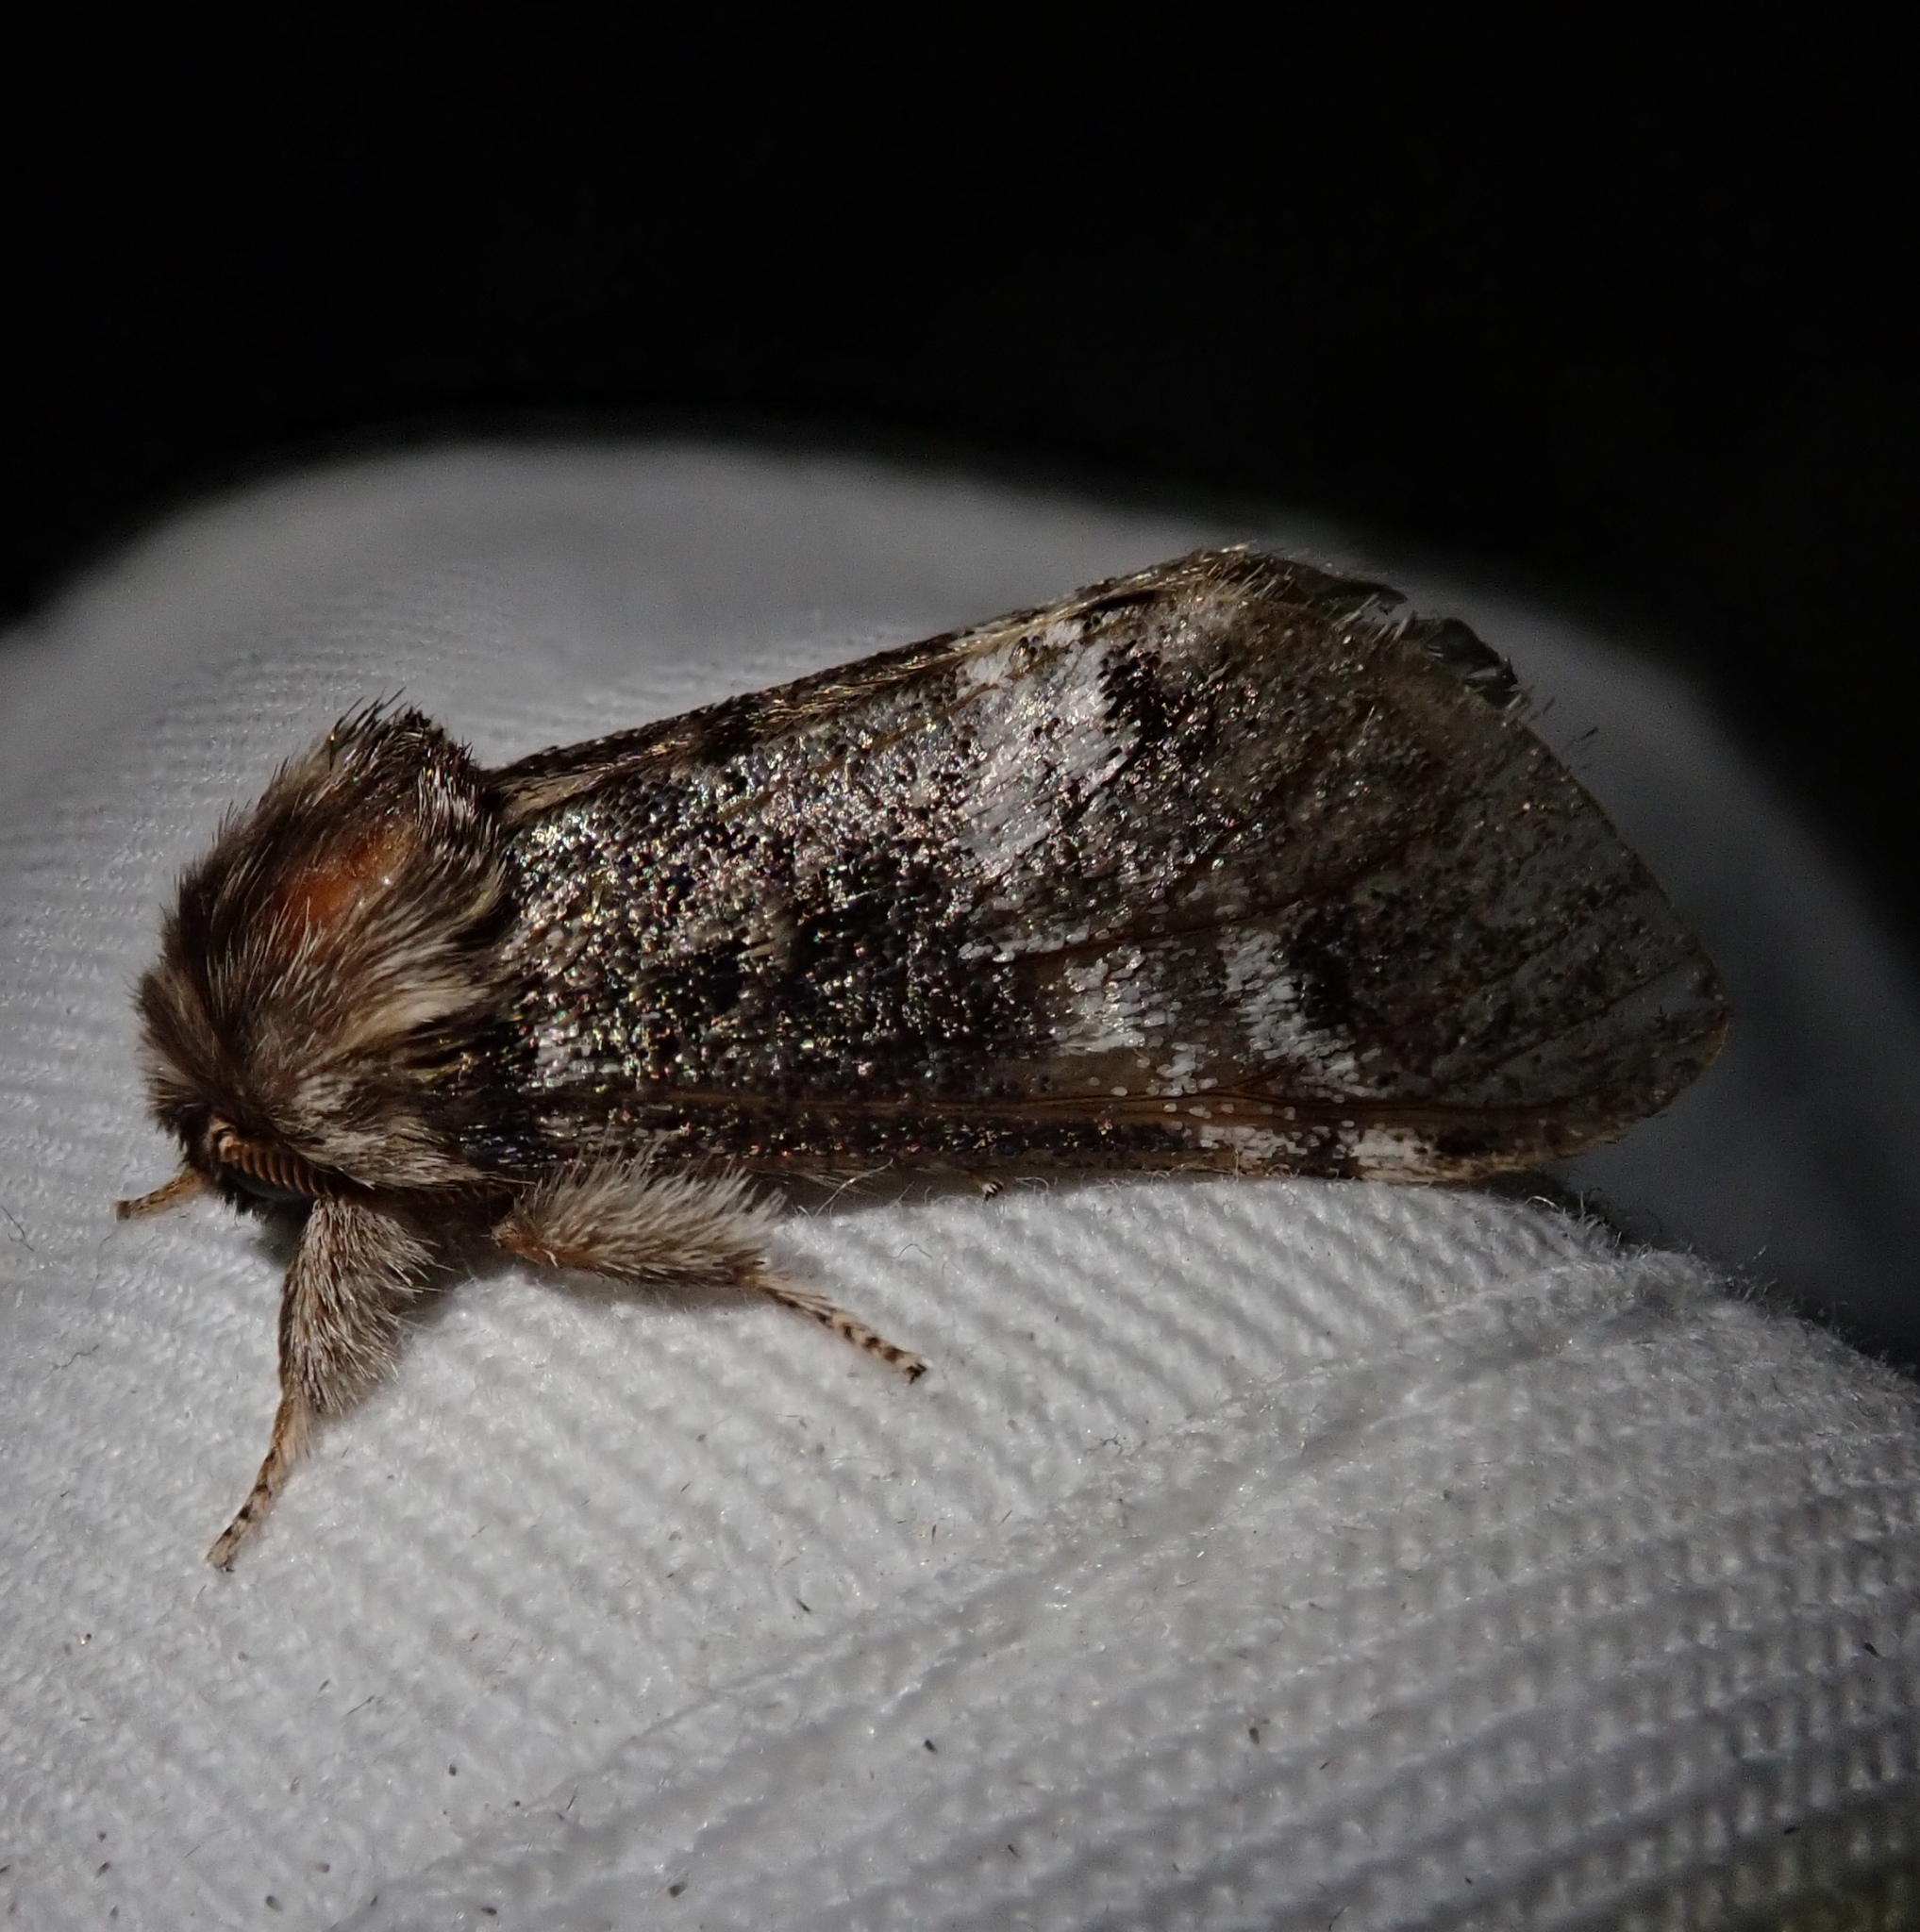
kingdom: Animalia
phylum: Arthropoda
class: Insecta
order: Lepidoptera
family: Notodontidae
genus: Drymonia
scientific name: Drymonia dodonaea
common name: Marbled brown
